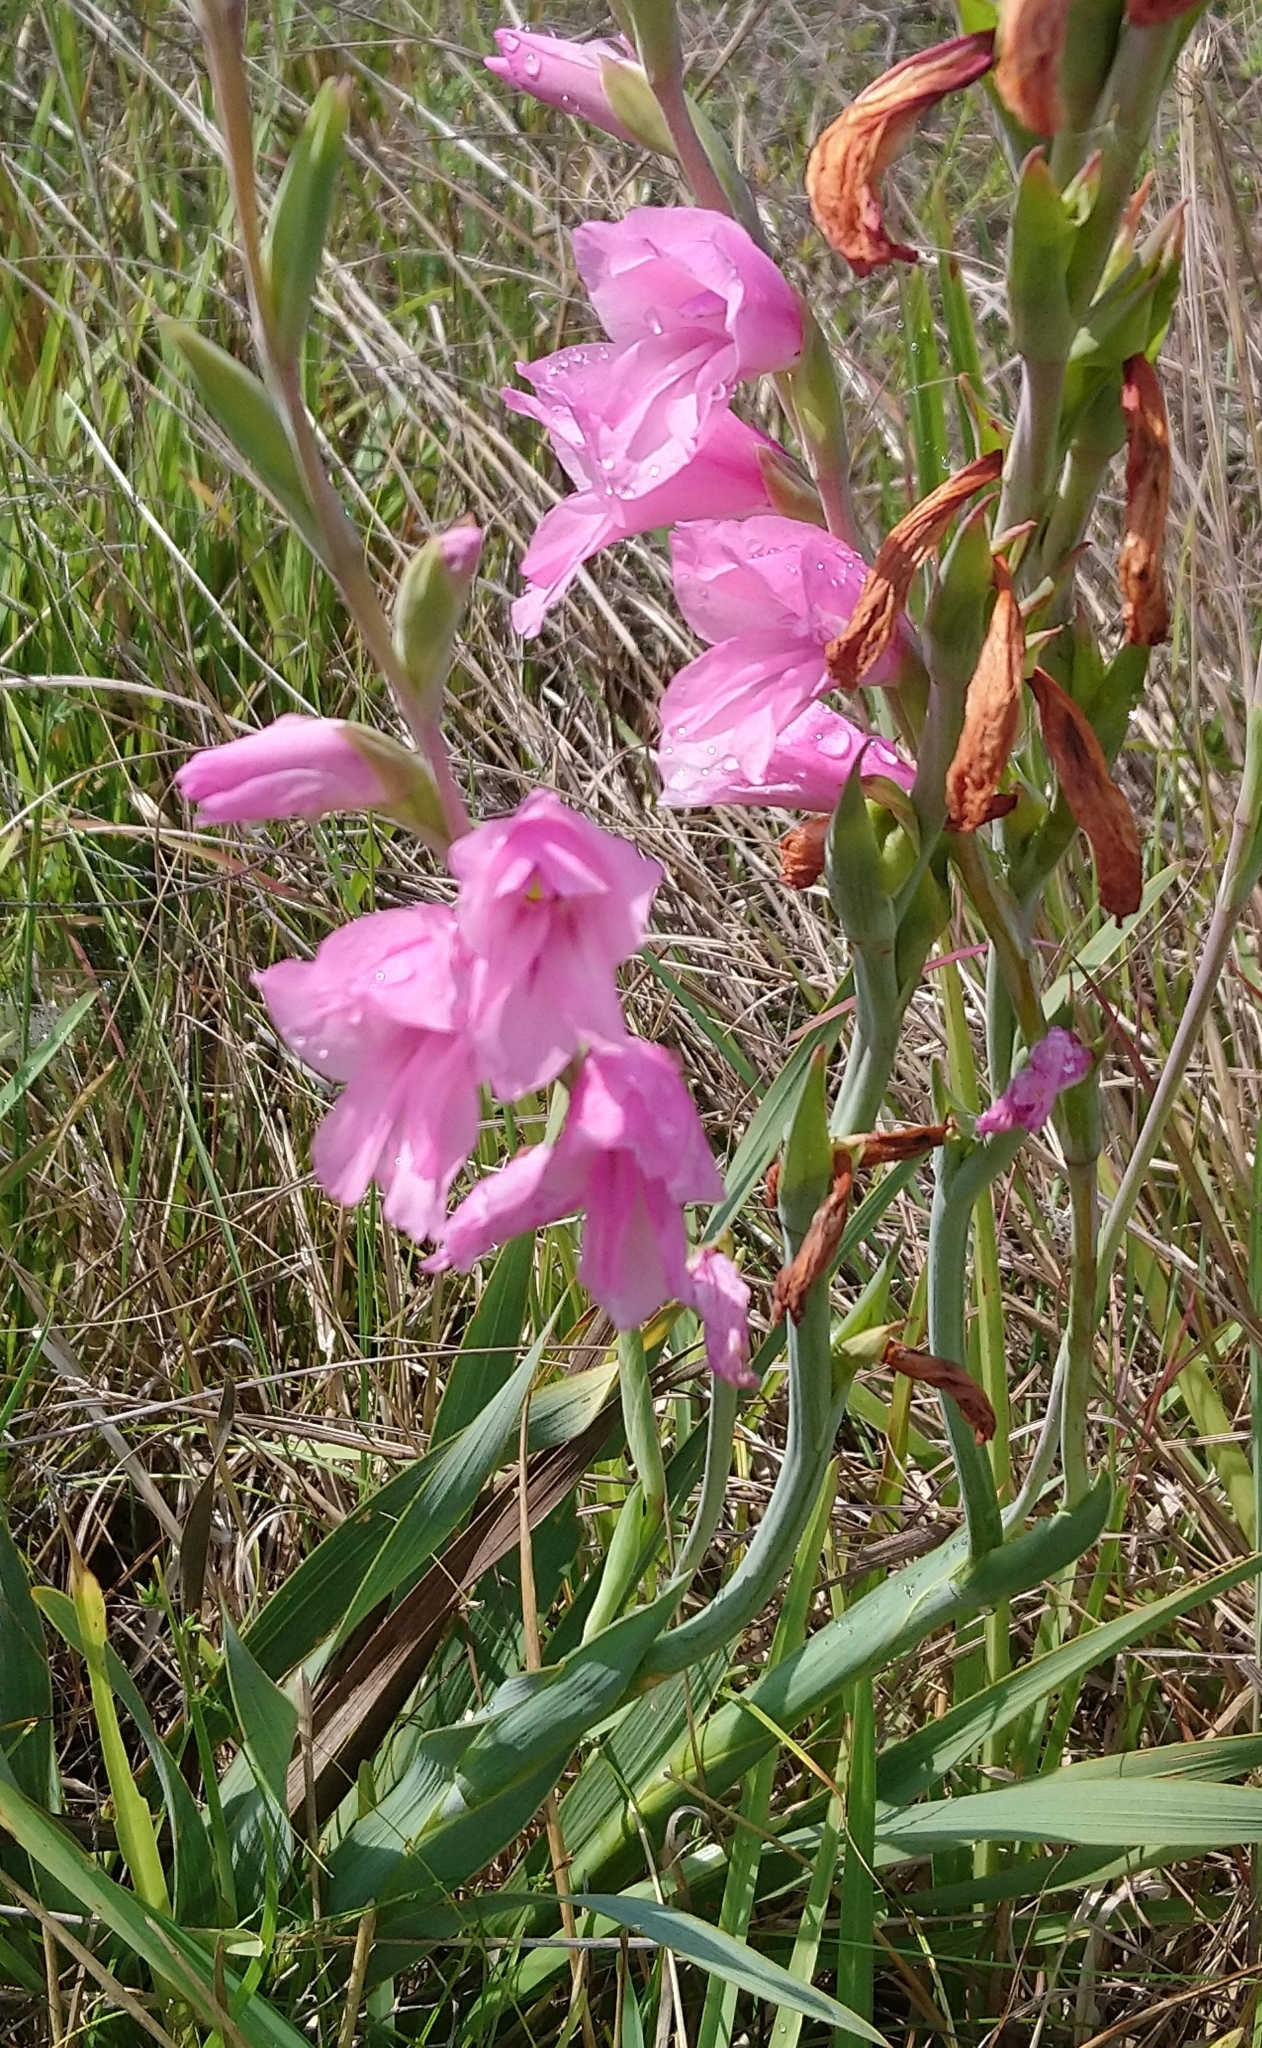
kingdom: Plantae
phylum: Tracheophyta
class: Liliopsida
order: Asparagales
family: Iridaceae
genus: Gladiolus
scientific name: Gladiolus ochroleucus
